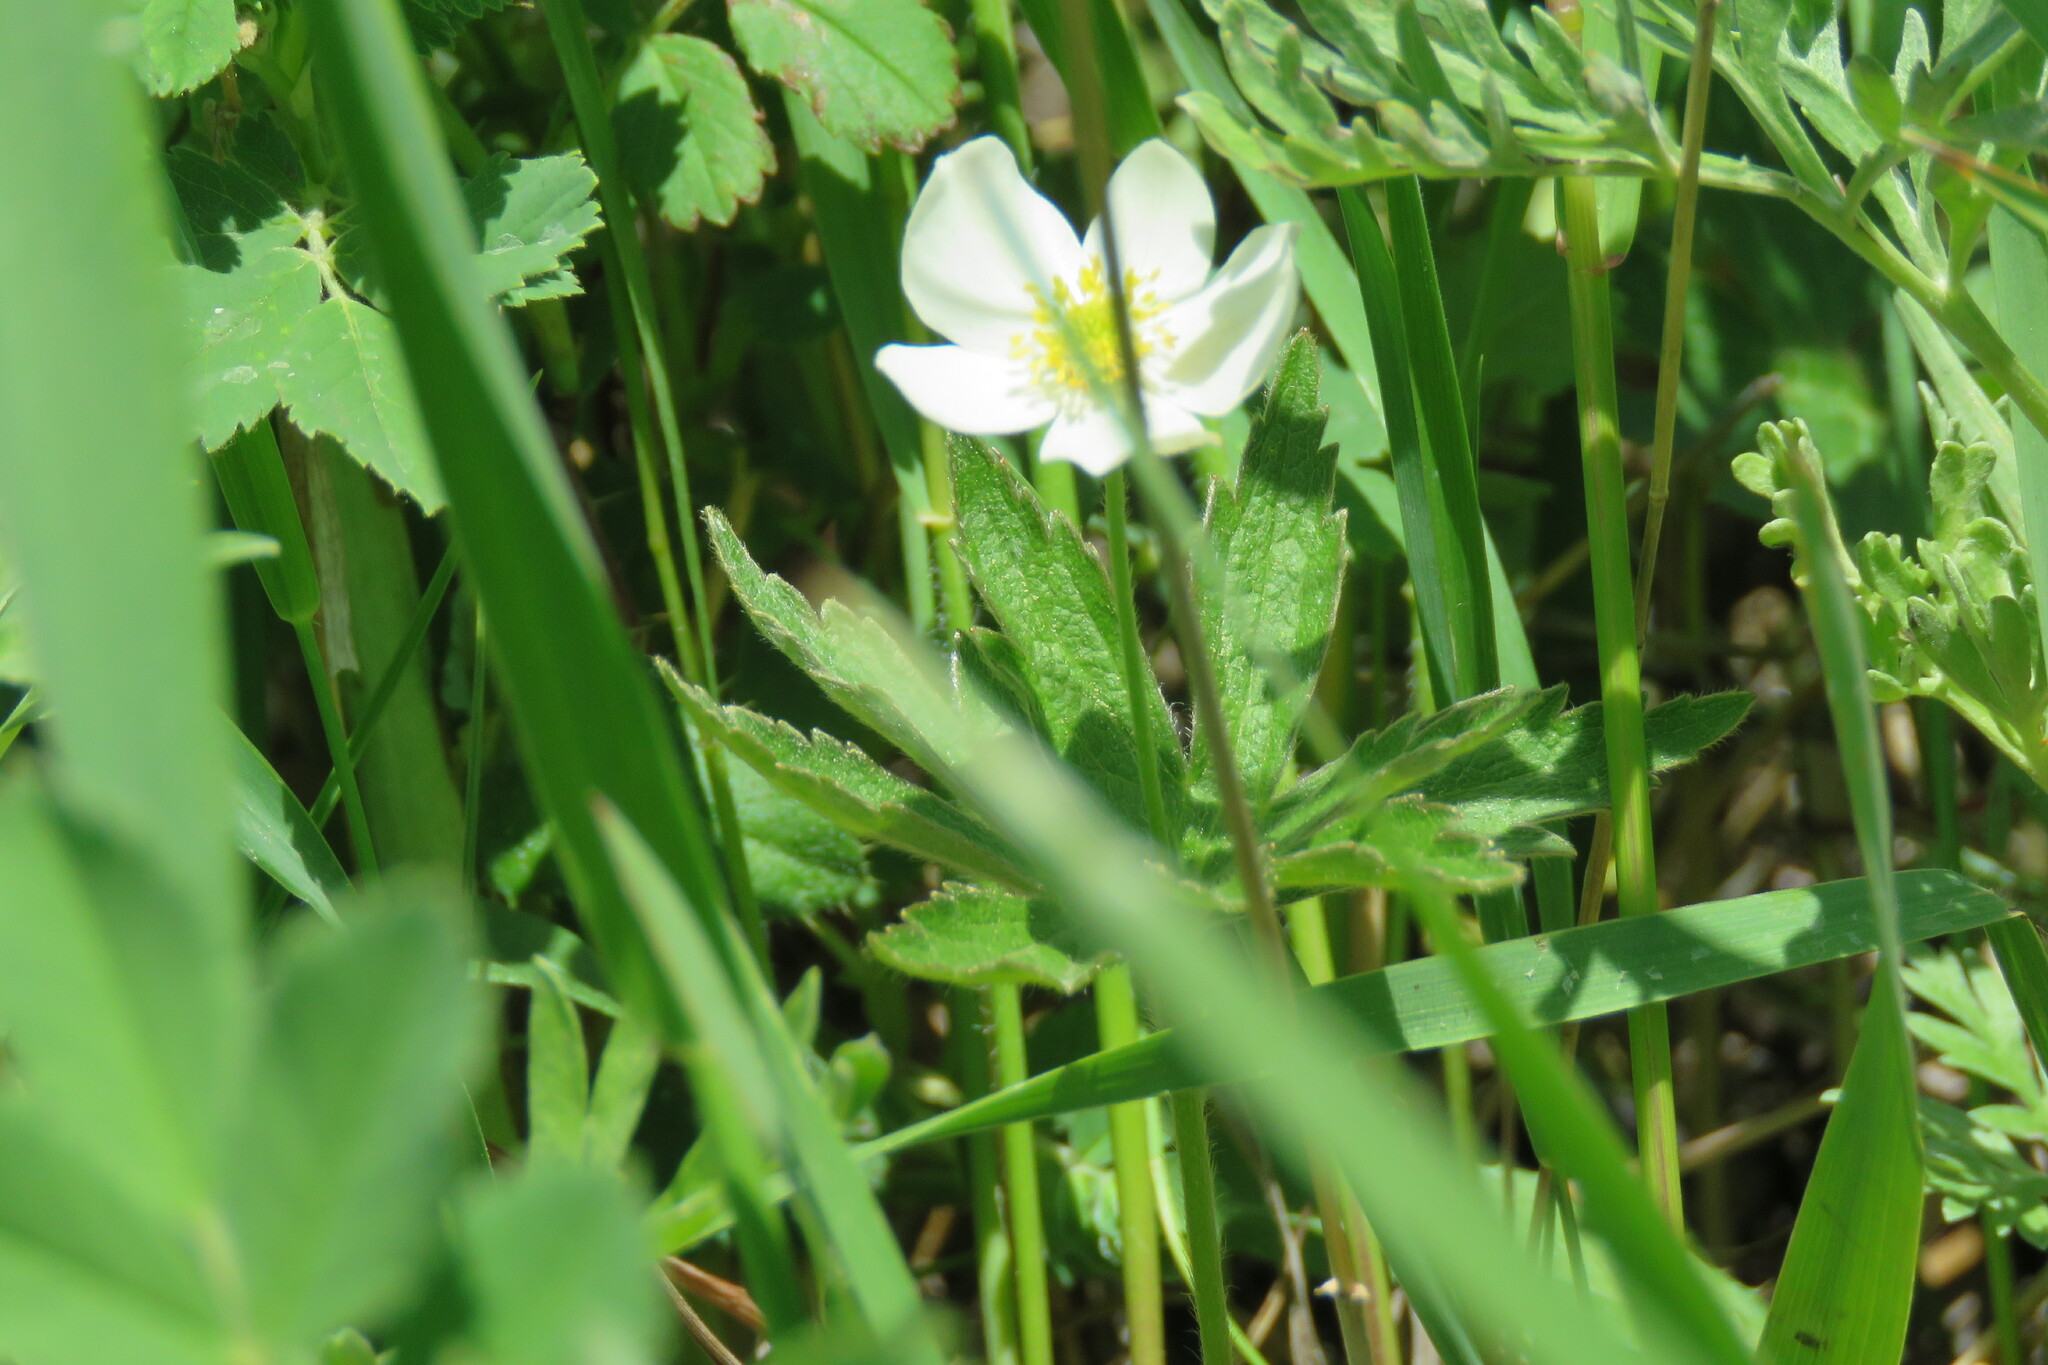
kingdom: Plantae
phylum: Tracheophyta
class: Magnoliopsida
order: Ranunculales
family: Ranunculaceae
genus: Anemonastrum
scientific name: Anemonastrum canadense
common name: Canada anemone
